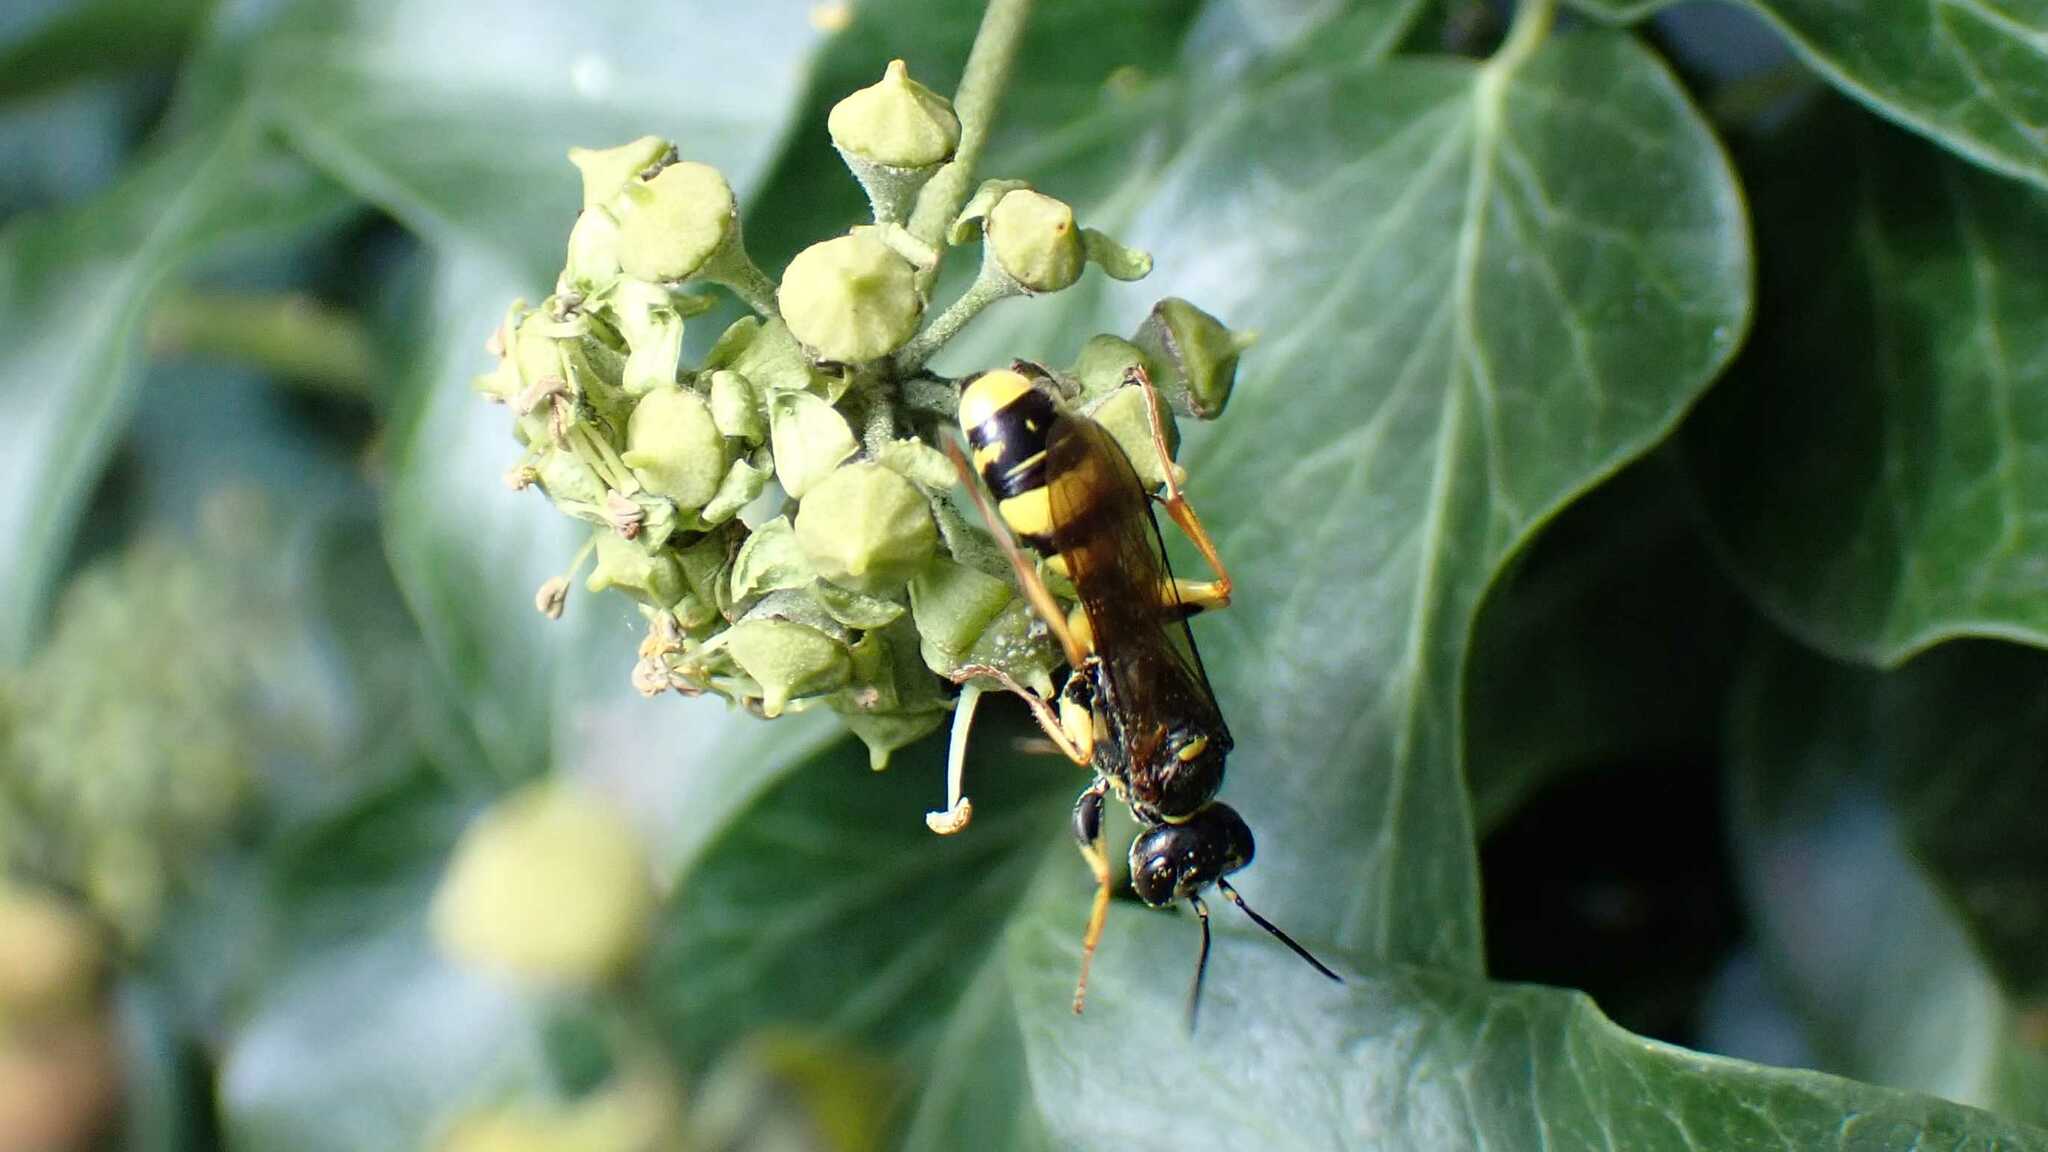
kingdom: Animalia
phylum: Arthropoda
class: Insecta
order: Hymenoptera
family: Crabronidae
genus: Mellinus
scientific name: Mellinus arvensis
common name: Field digger wasp
